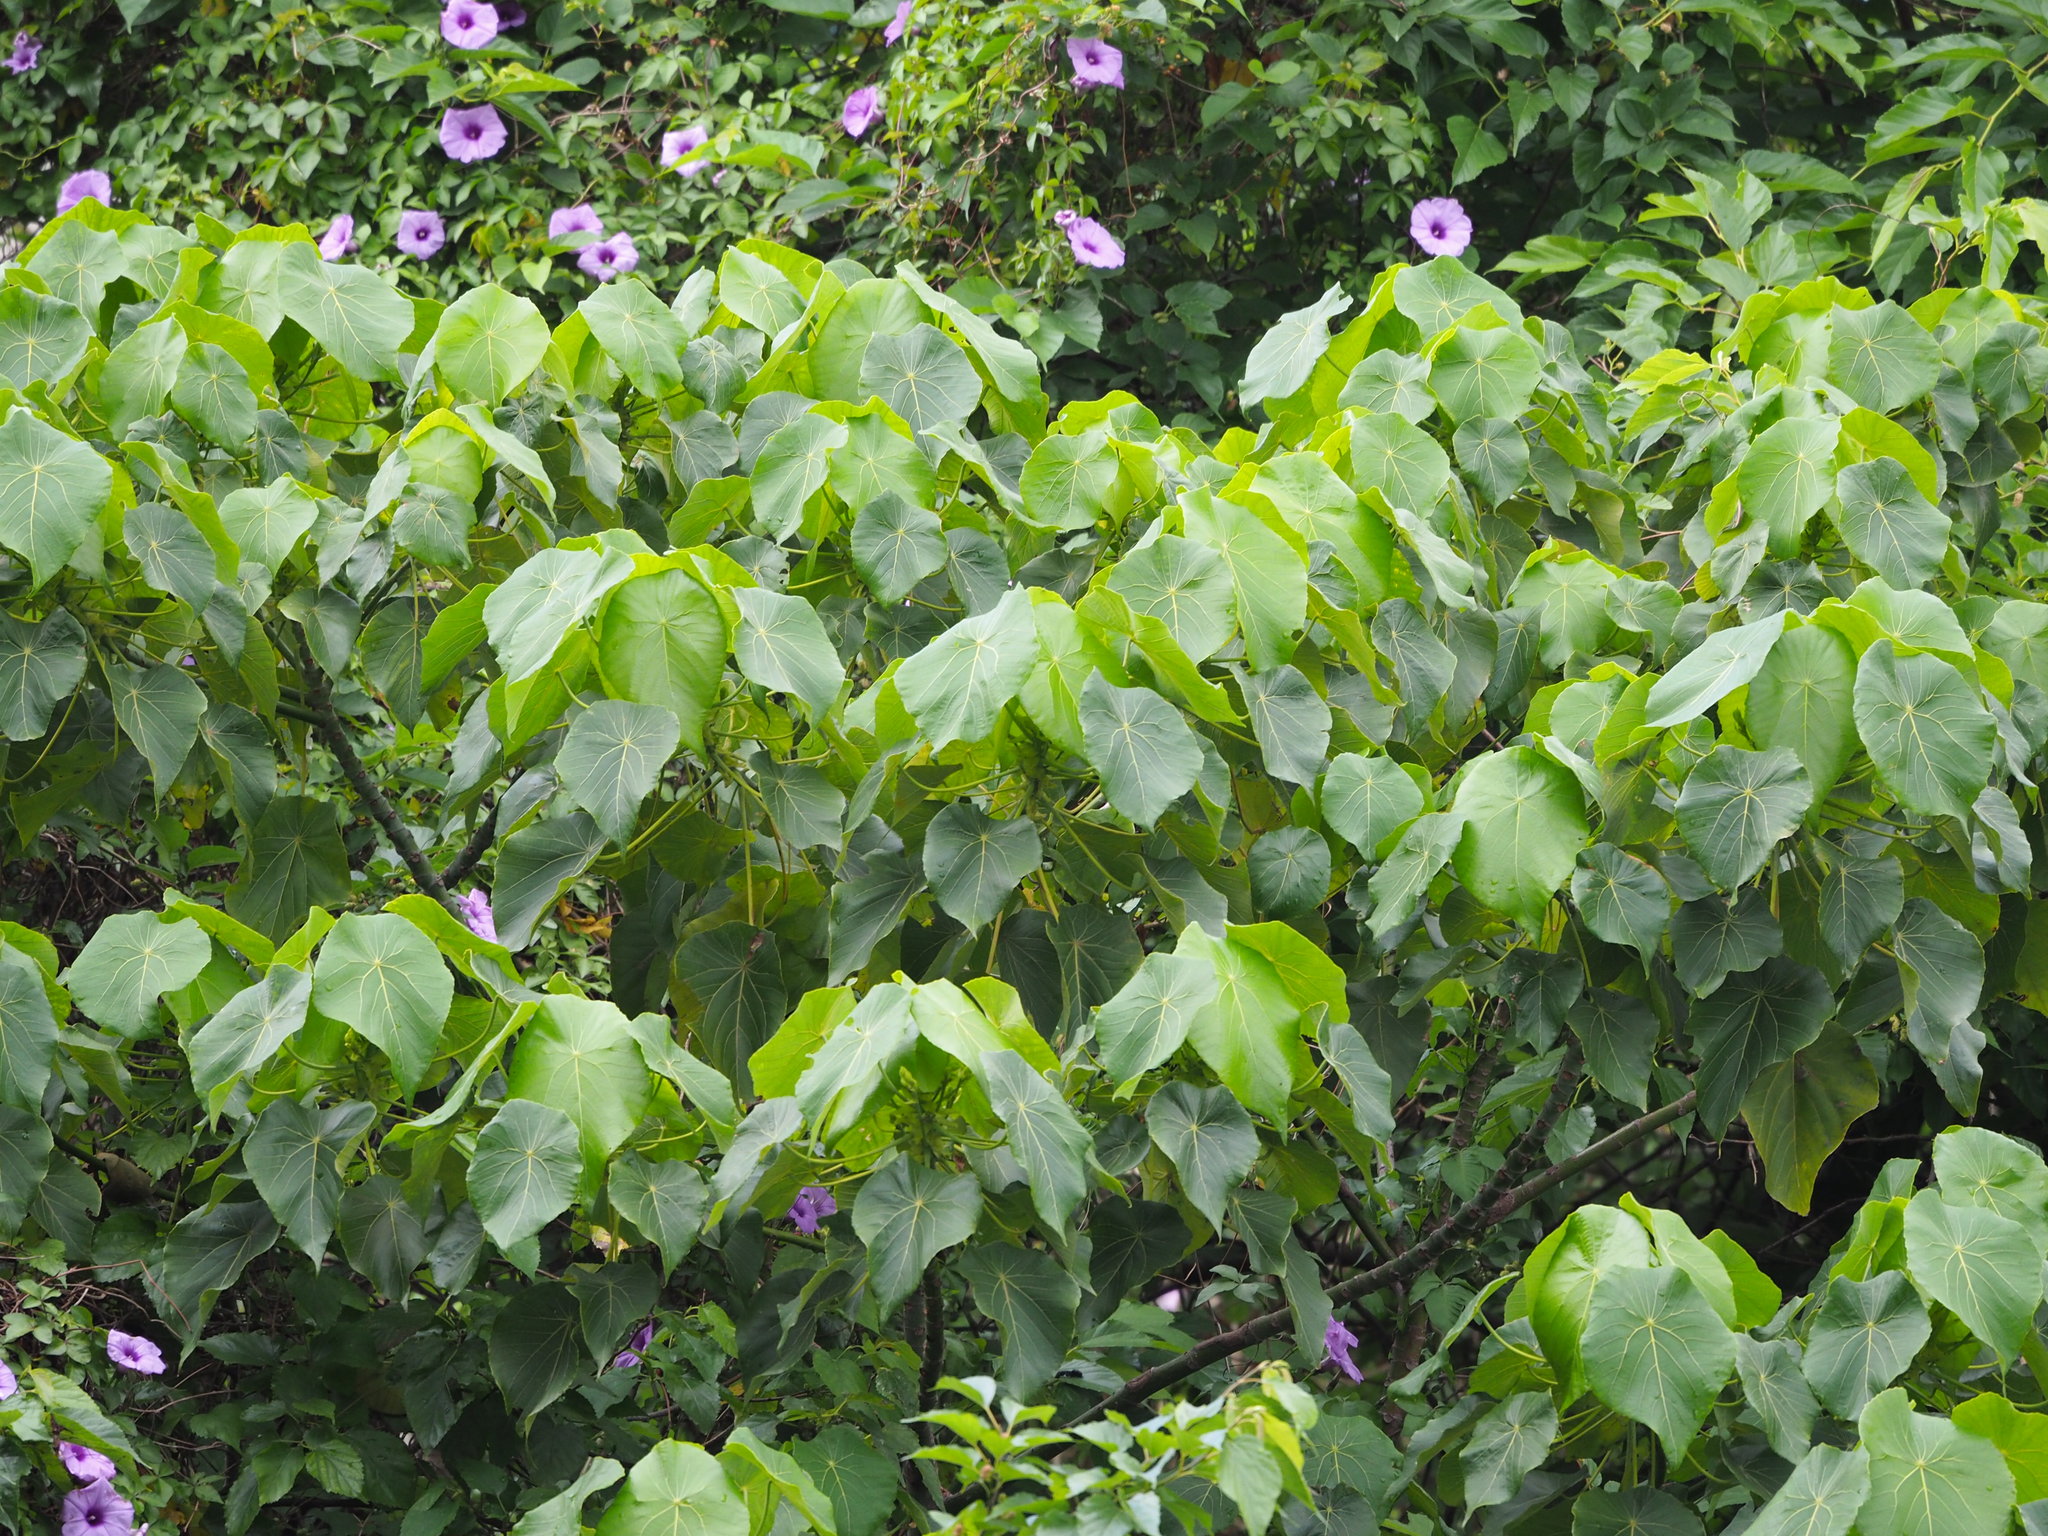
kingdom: Plantae
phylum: Tracheophyta
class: Magnoliopsida
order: Malpighiales
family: Euphorbiaceae
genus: Macaranga
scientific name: Macaranga tanarius
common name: Parasol leaf tree
